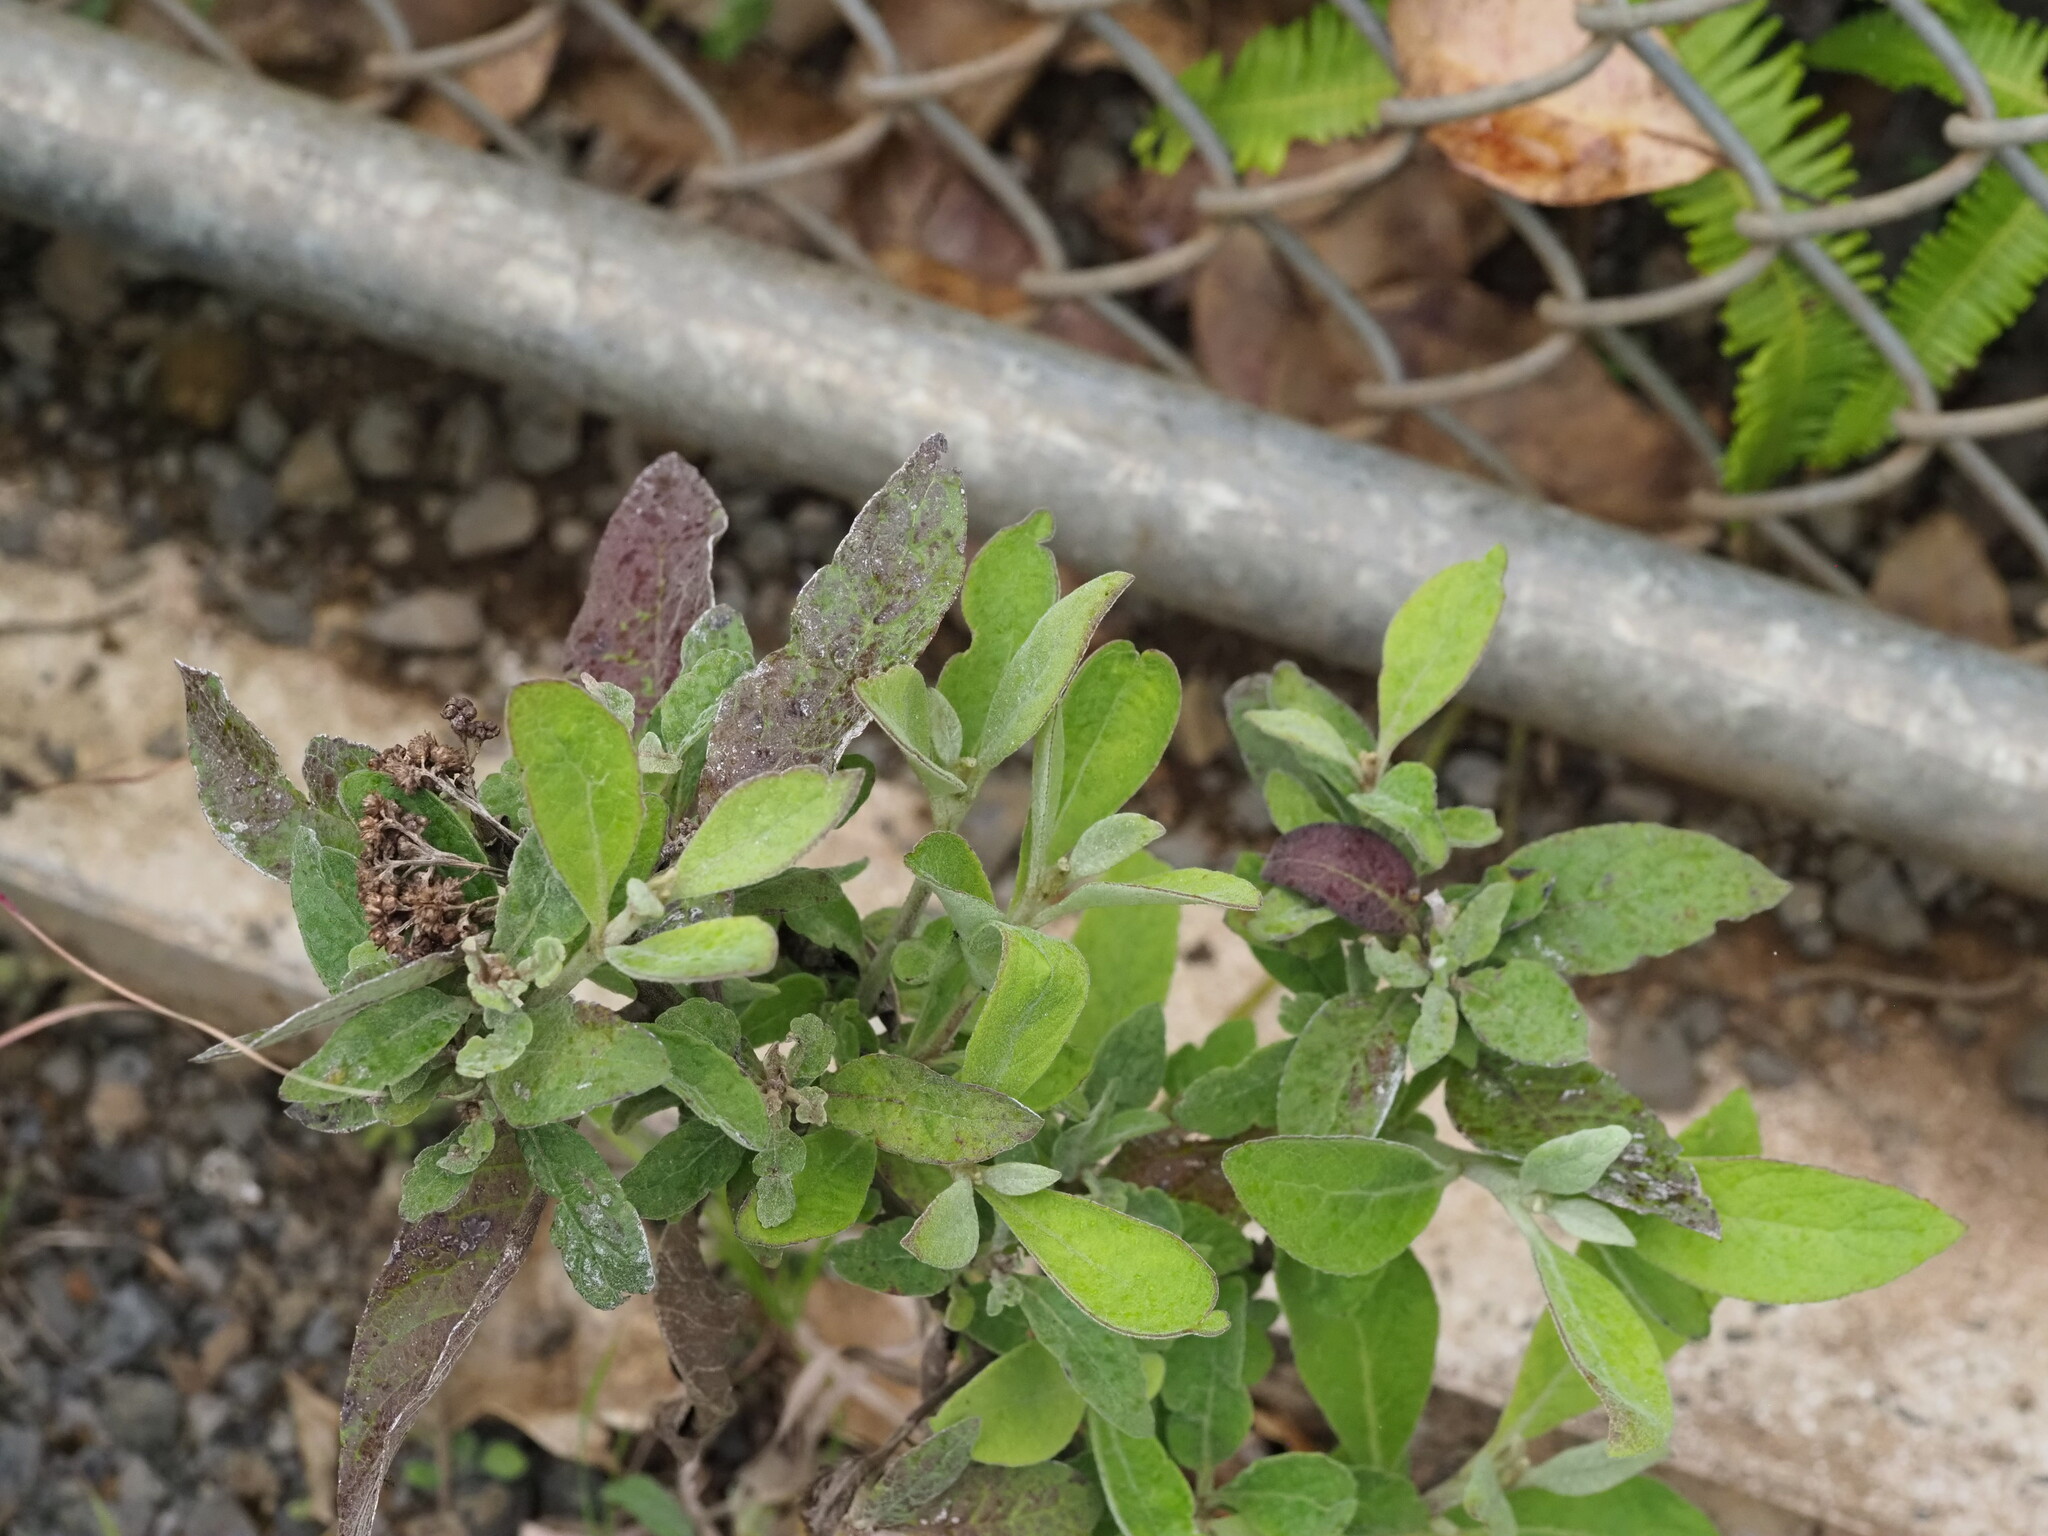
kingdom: Plantae
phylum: Tracheophyta
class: Magnoliopsida
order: Asterales
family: Asteraceae
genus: Pluchea
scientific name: Pluchea carolinensis
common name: Marsh fleabane
